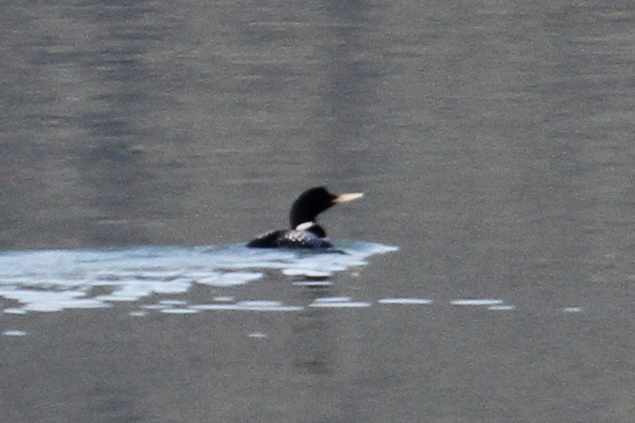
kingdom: Animalia
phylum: Chordata
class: Aves
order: Gaviiformes
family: Gaviidae
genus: Gavia
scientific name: Gavia adamsii
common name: Yellow-billed loon
